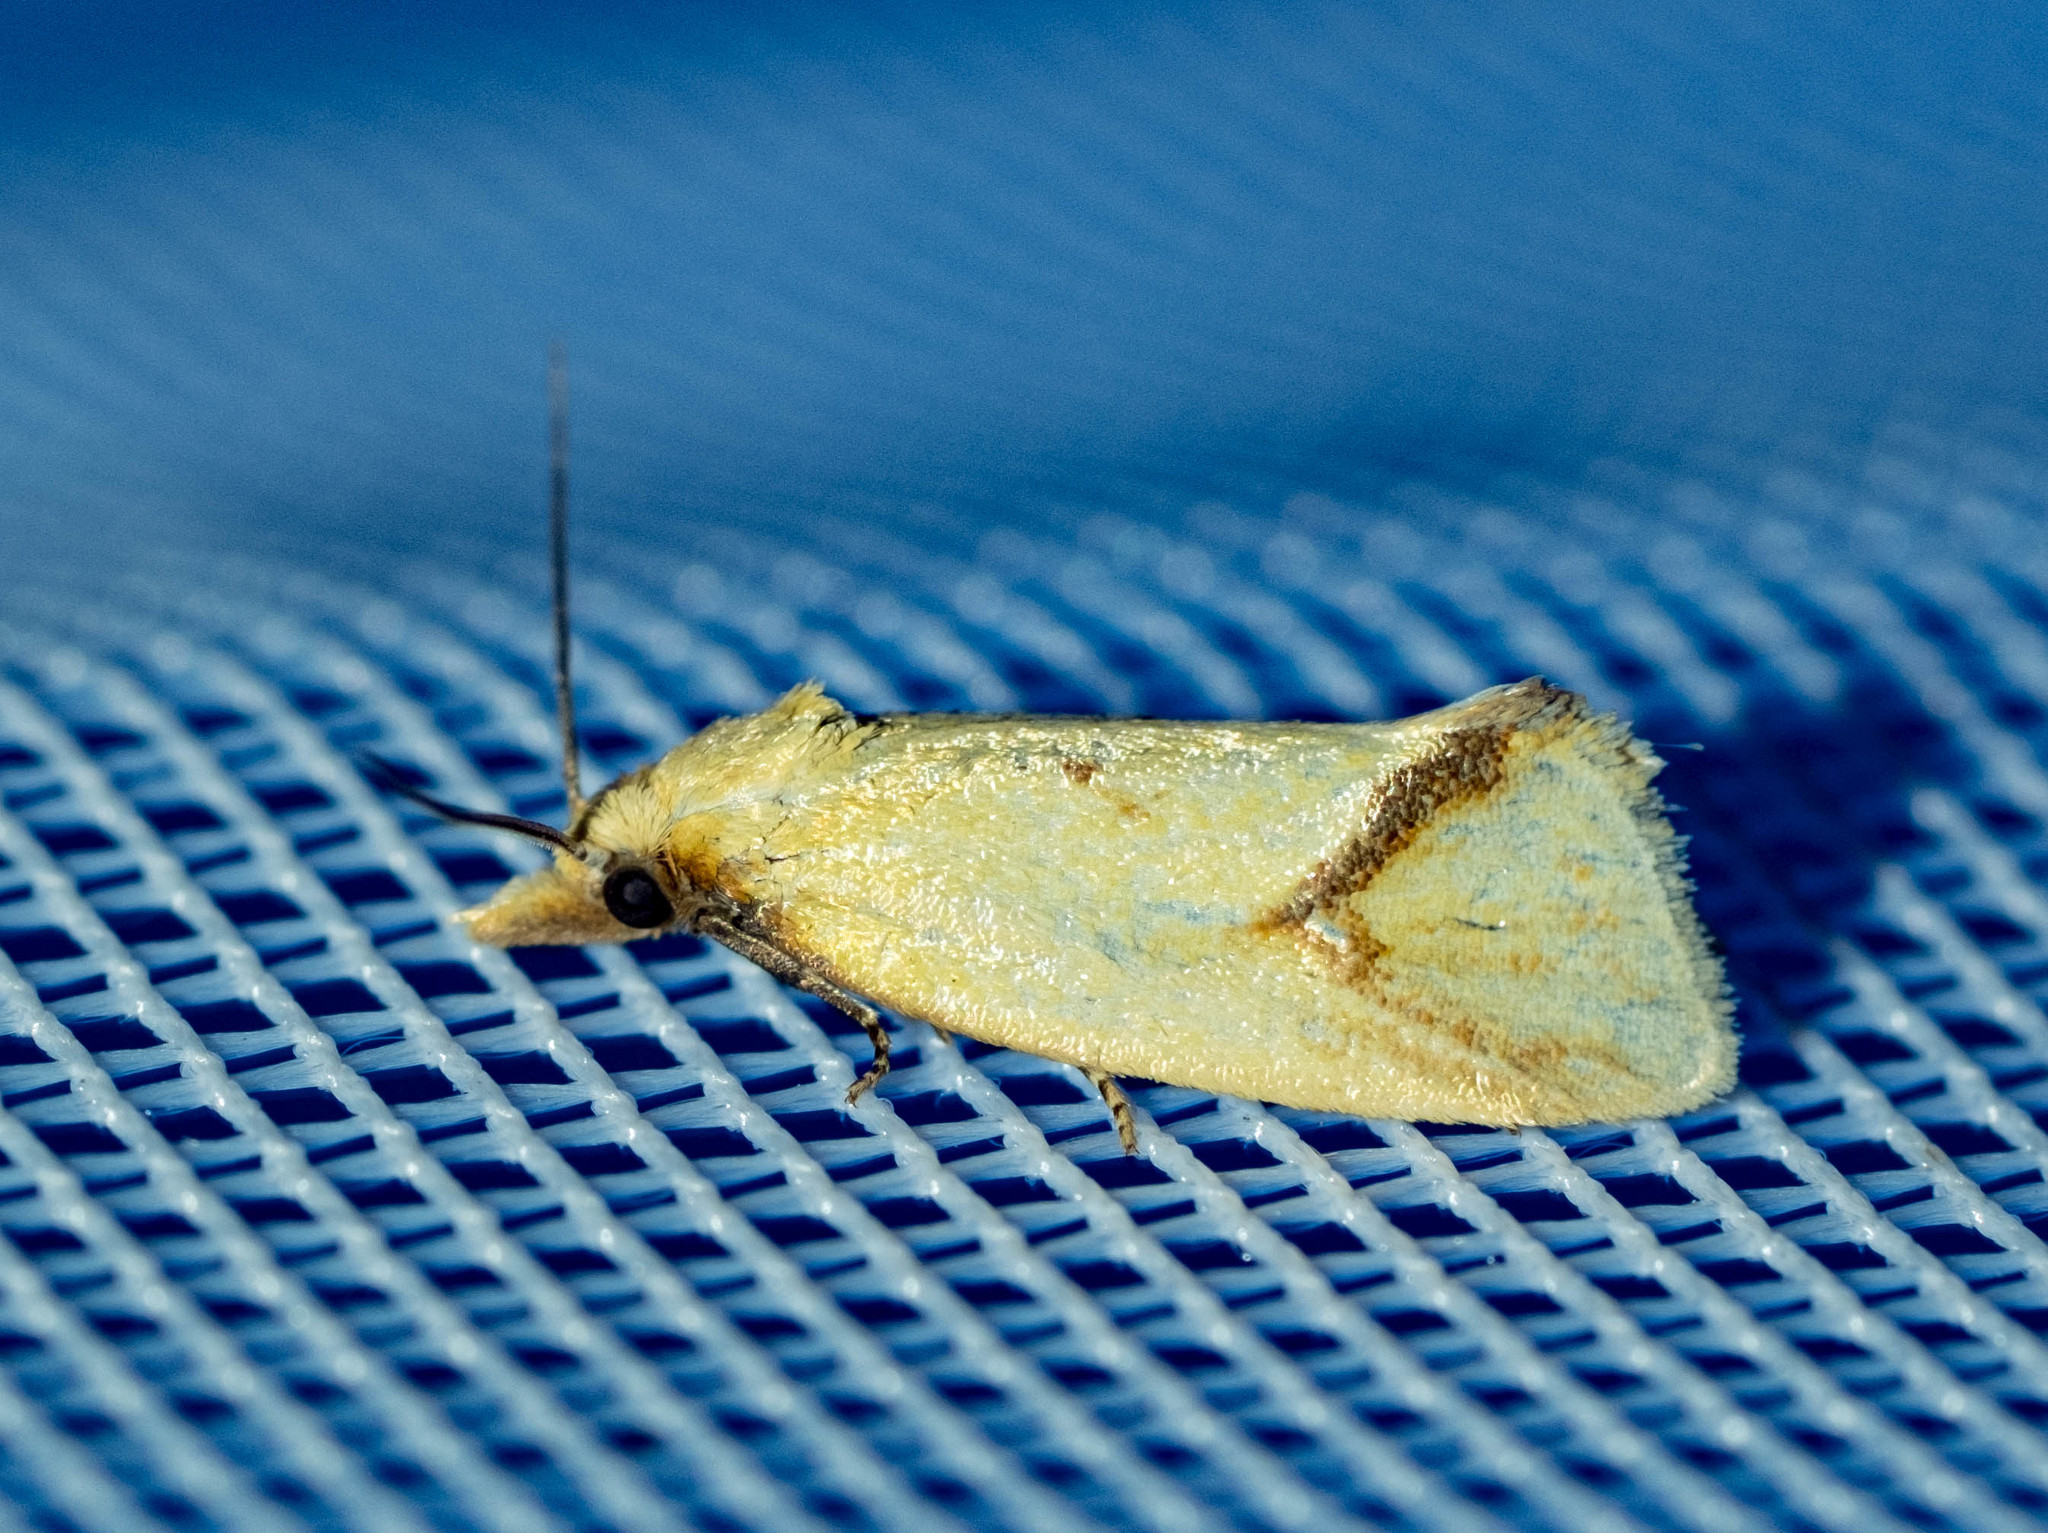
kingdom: Animalia
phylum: Arthropoda
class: Insecta
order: Lepidoptera
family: Tortricidae
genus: Agapeta
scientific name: Agapeta hamana
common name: Common yellow conch
